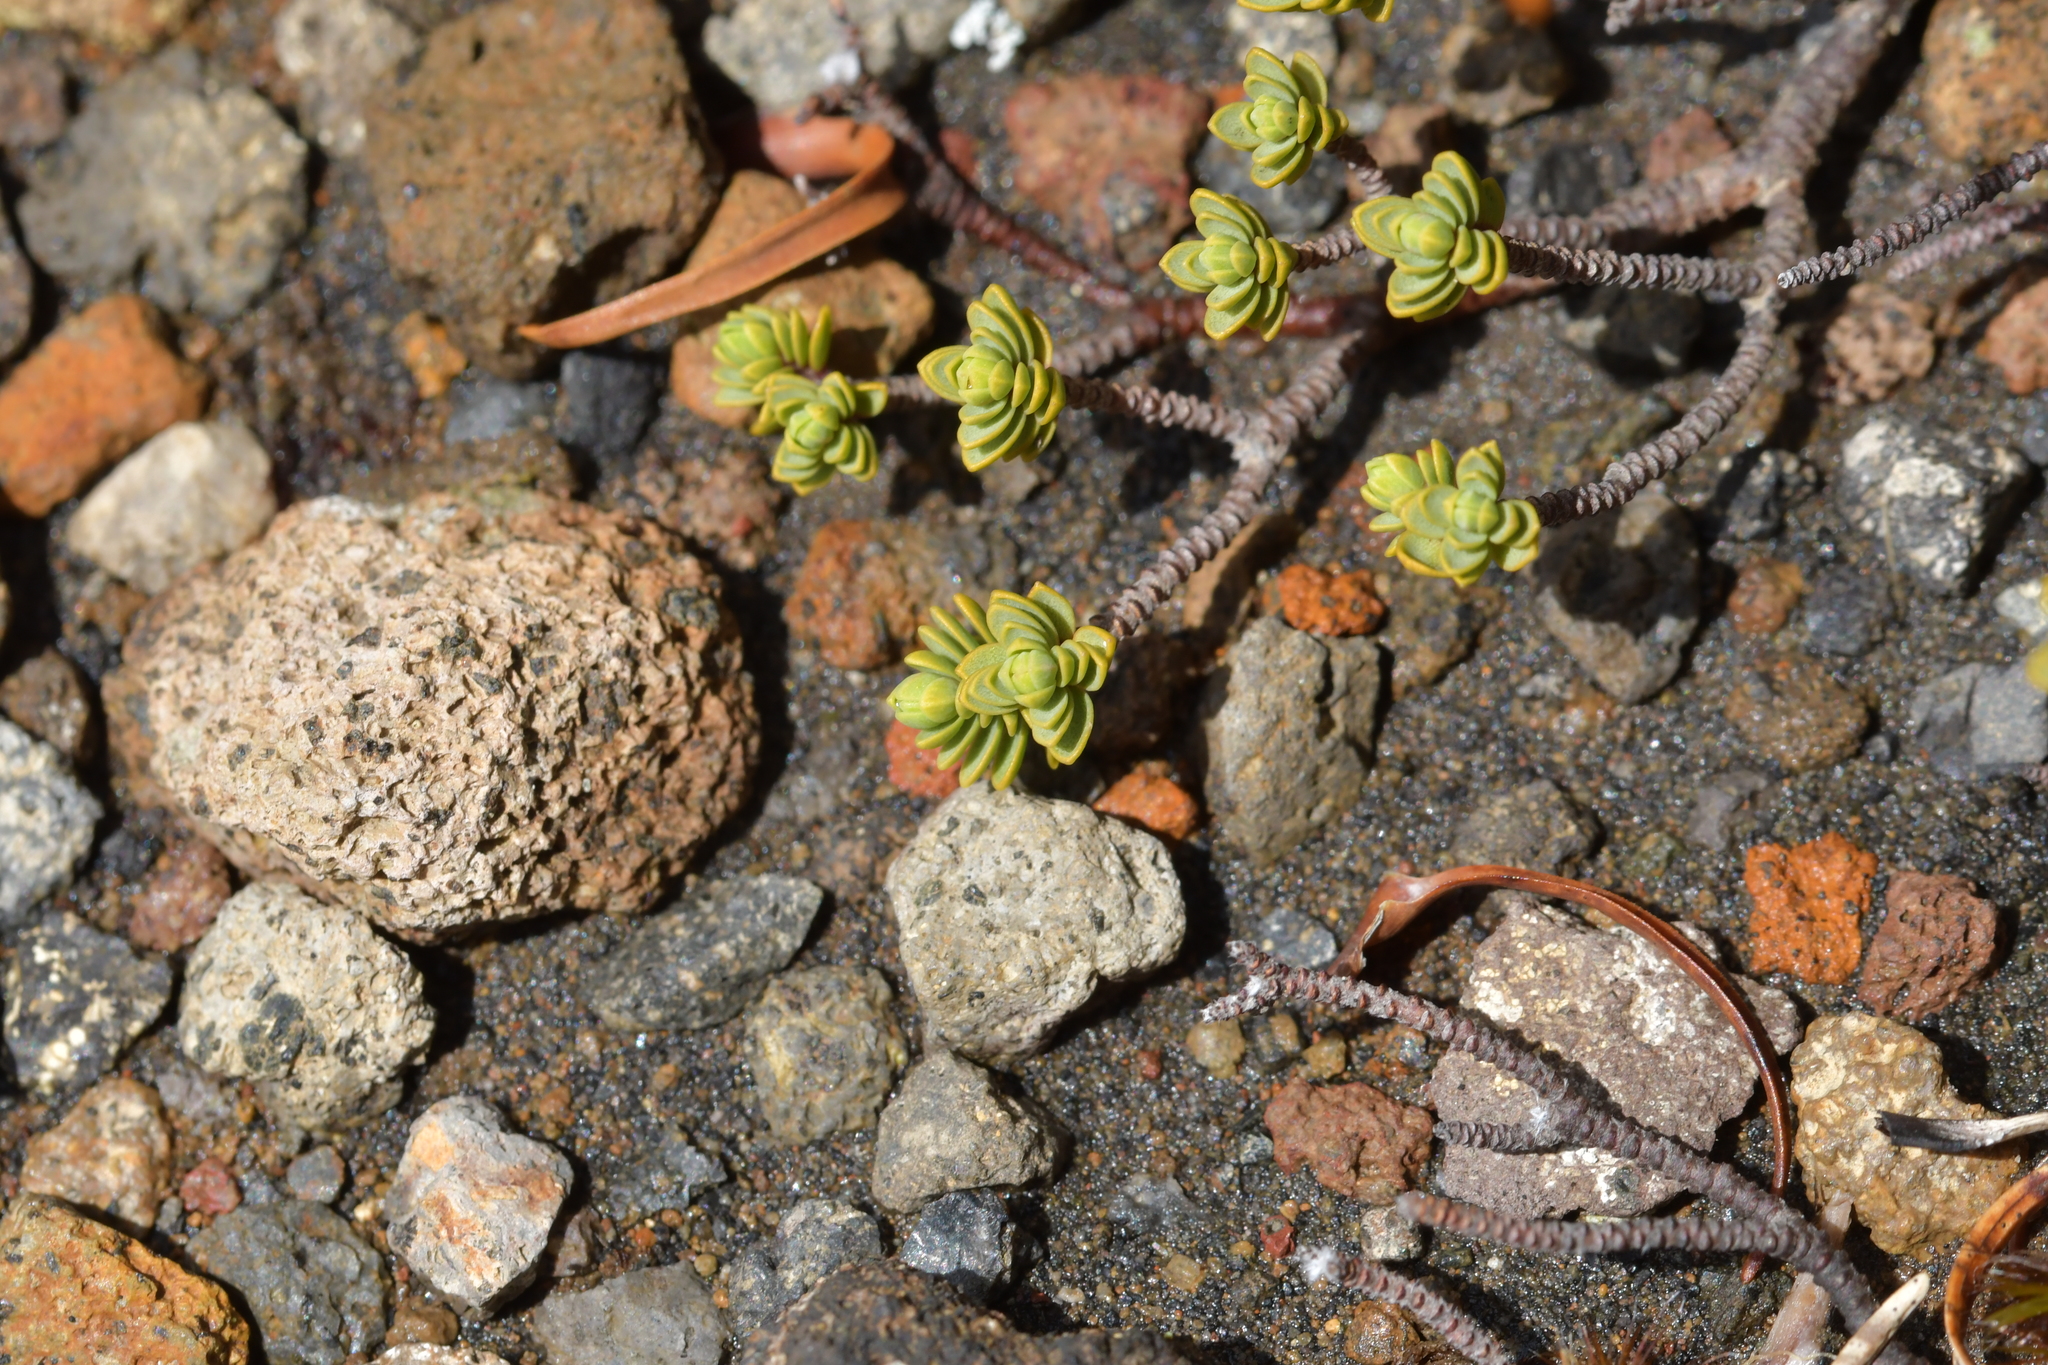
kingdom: Plantae
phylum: Tracheophyta
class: Magnoliopsida
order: Malvales
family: Thymelaeaceae
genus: Pimelea
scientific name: Pimelea microphylla
